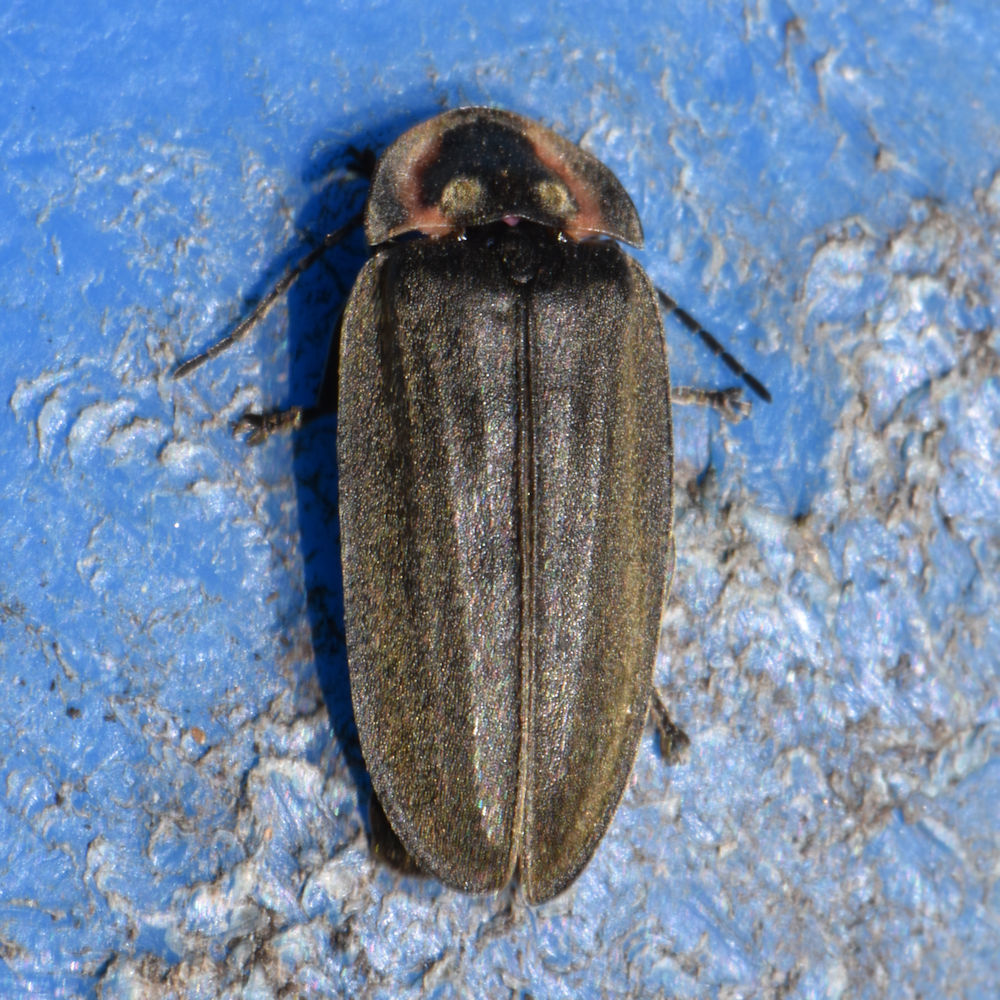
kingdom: Animalia
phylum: Arthropoda
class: Insecta
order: Coleoptera
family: Lampyridae
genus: Photinus
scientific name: Photinus corrusca
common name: Winter firefly
